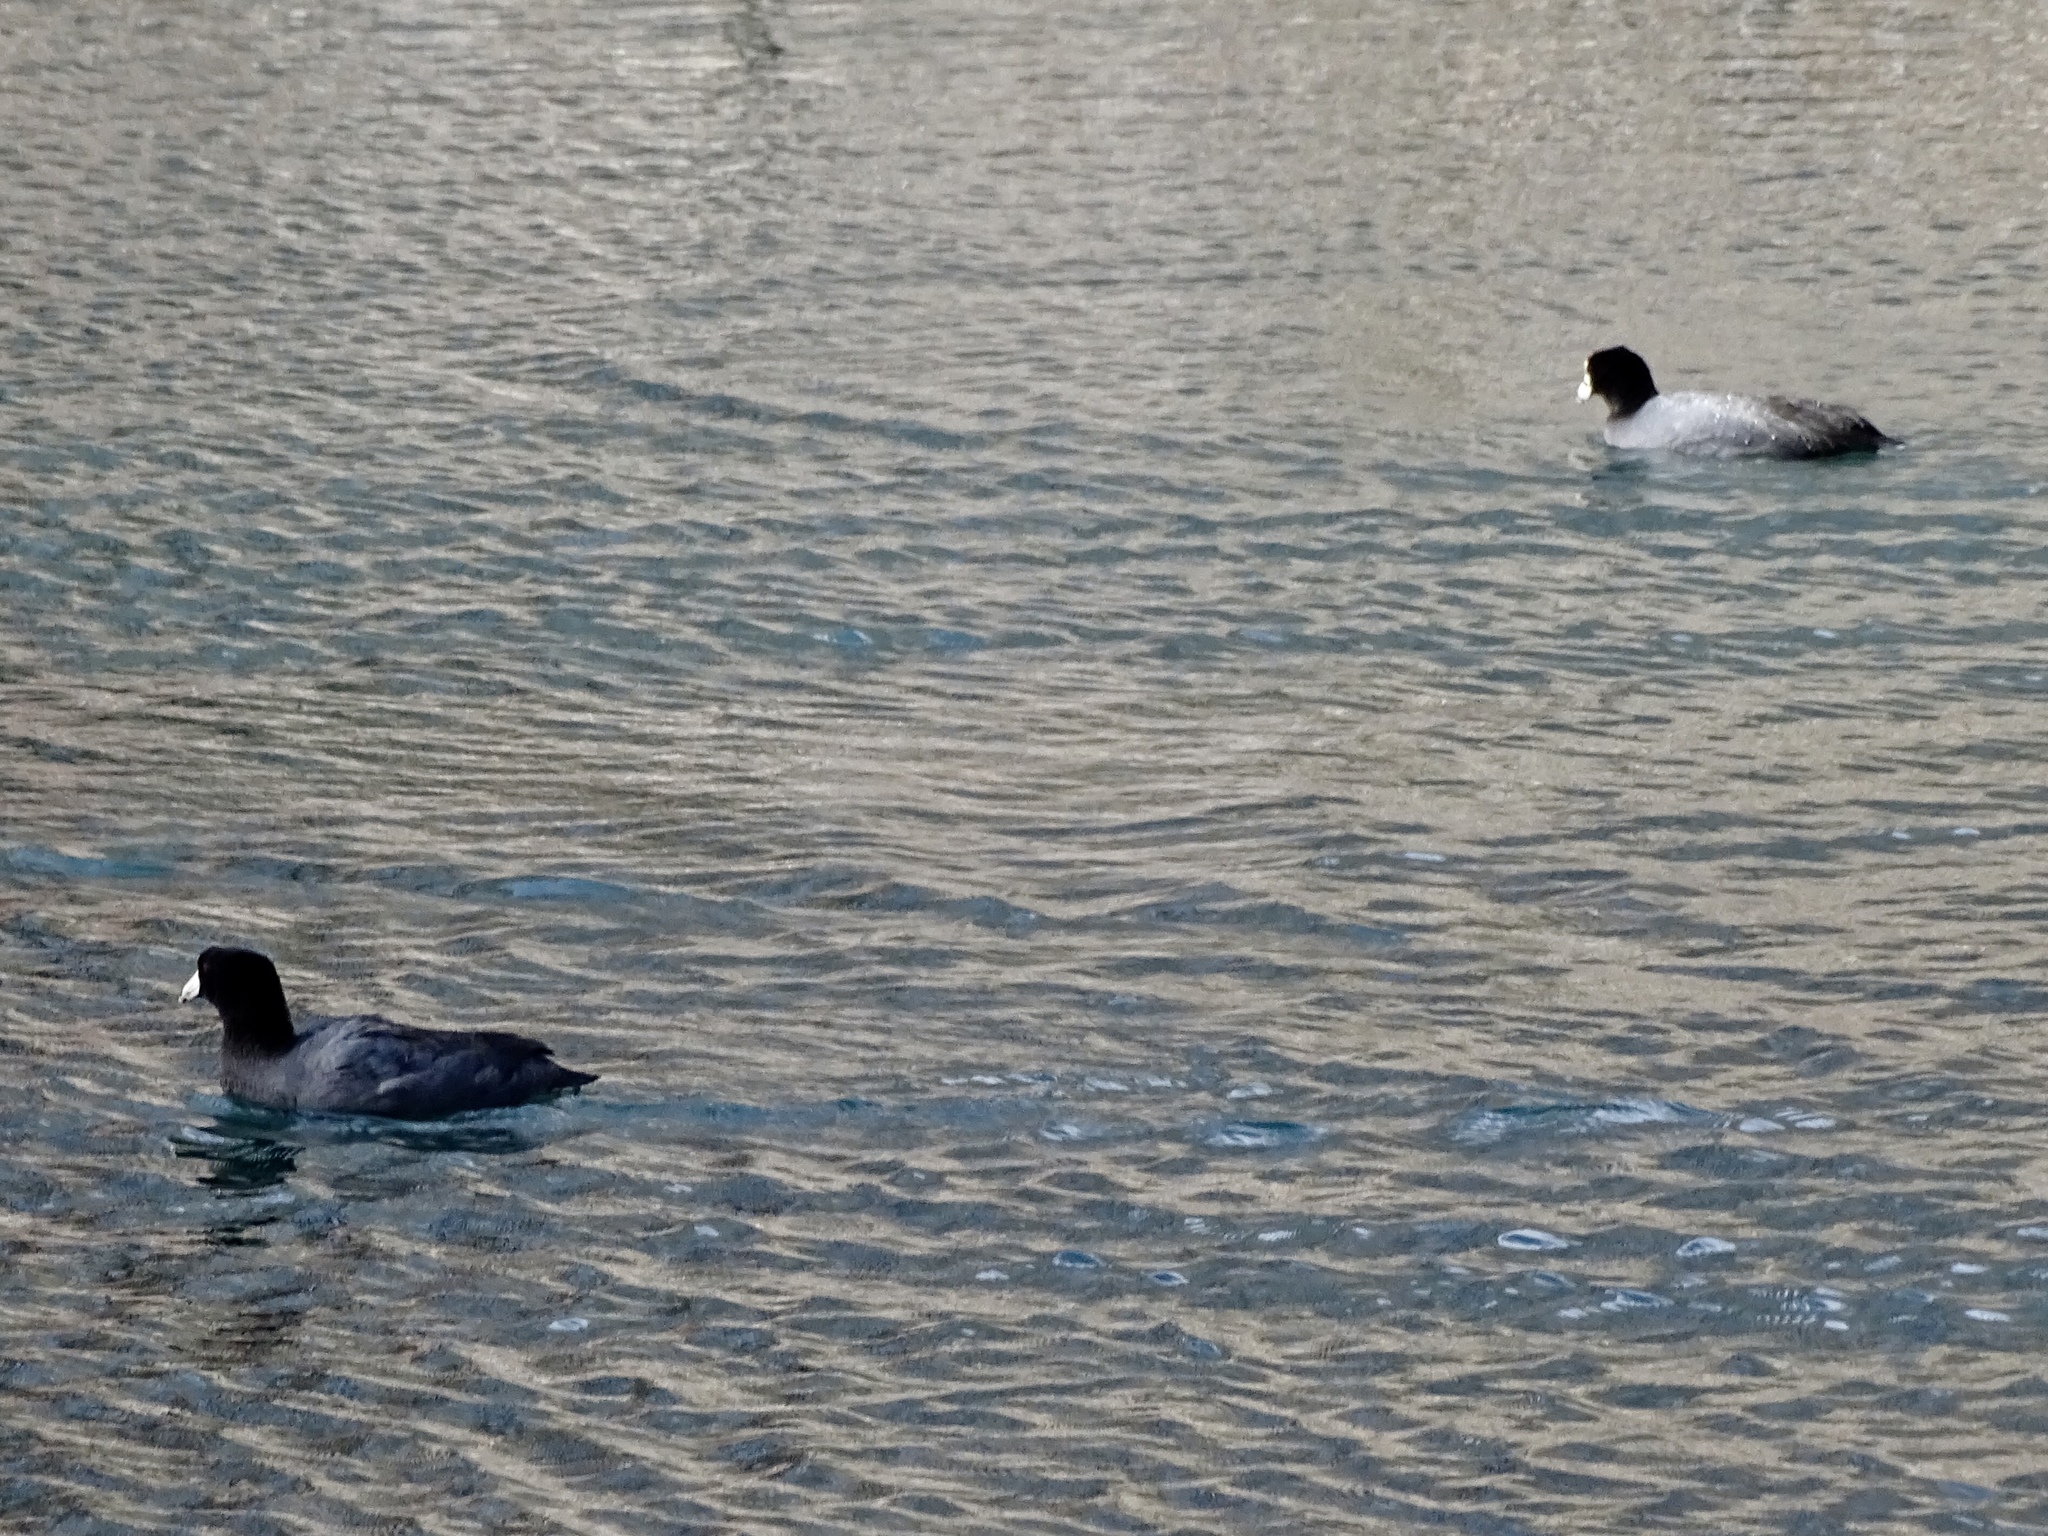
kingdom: Animalia
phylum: Chordata
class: Aves
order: Gruiformes
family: Rallidae
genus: Fulica
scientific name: Fulica americana
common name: American coot
